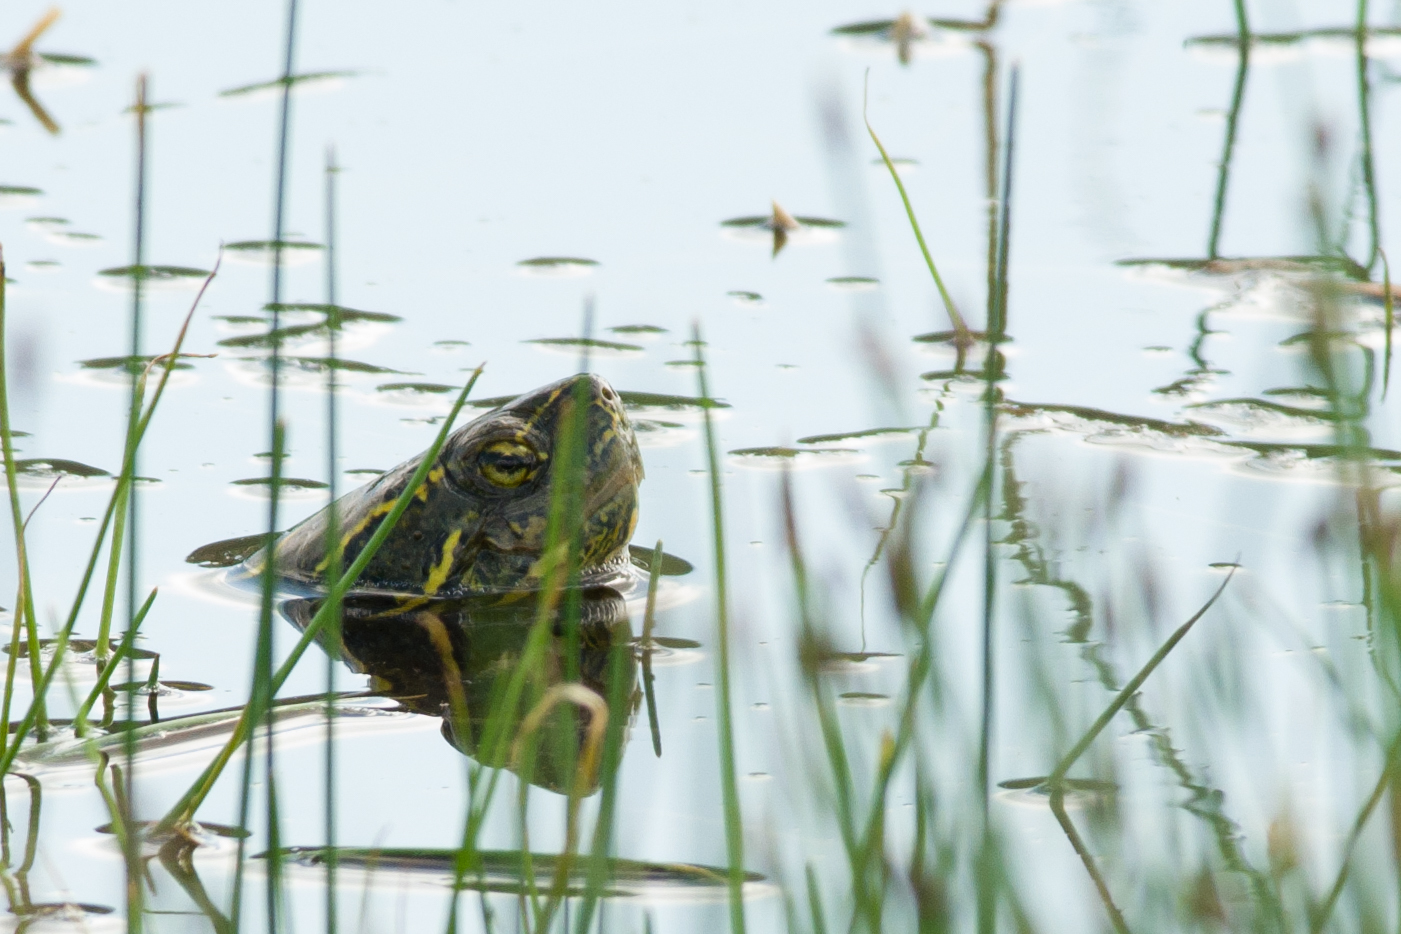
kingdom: Animalia
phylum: Chordata
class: Testudines
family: Emydidae
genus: Chrysemys
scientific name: Chrysemys picta
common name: Painted turtle
